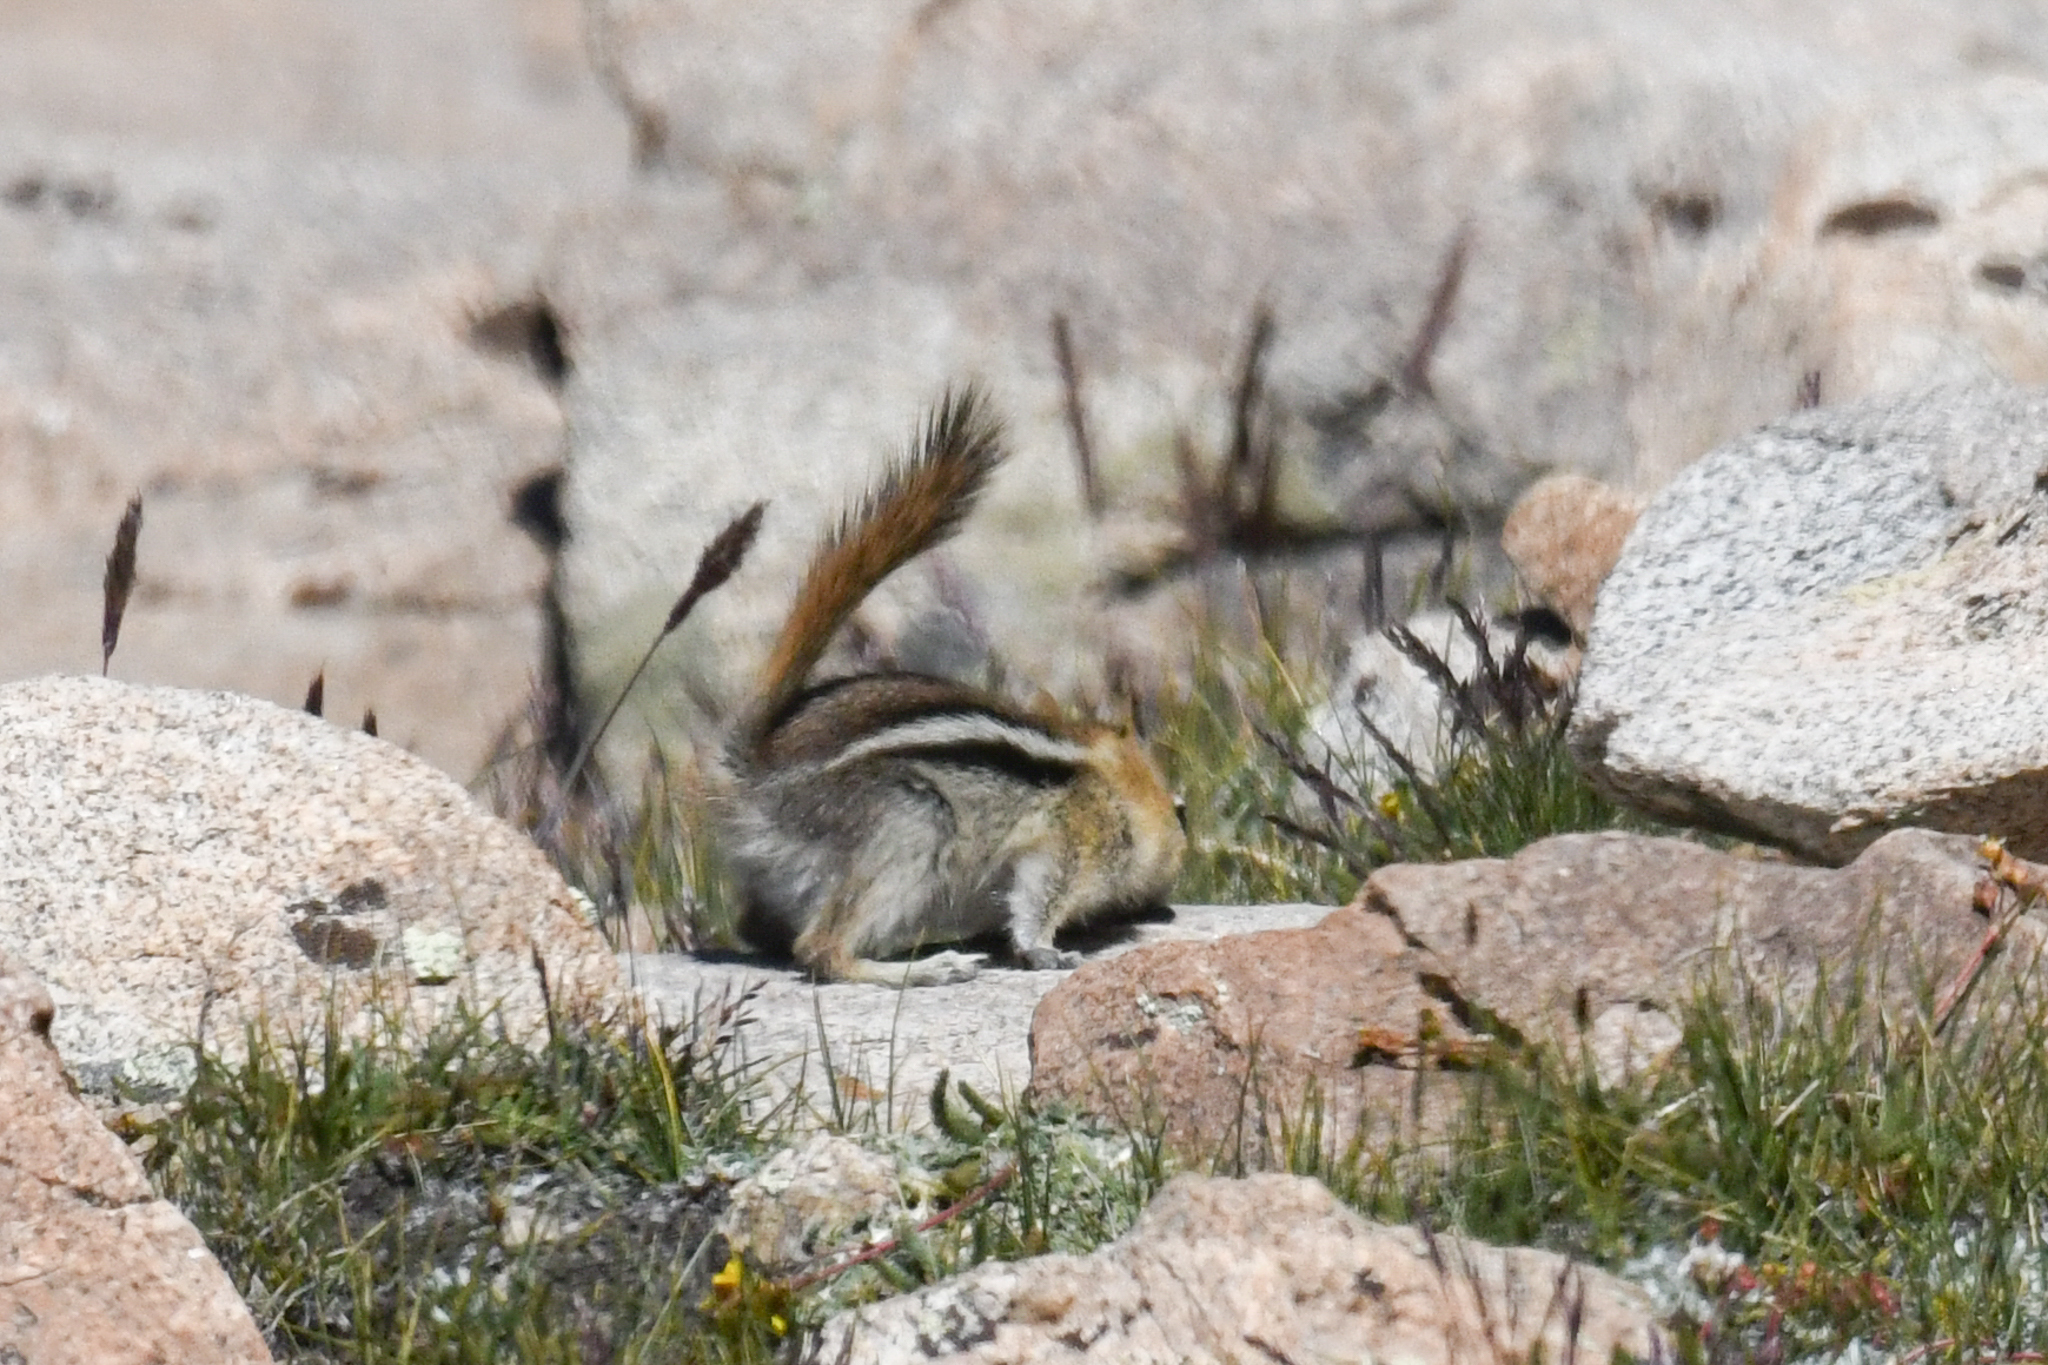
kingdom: Animalia
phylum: Chordata
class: Mammalia
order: Rodentia
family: Sciuridae
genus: Callospermophilus
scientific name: Callospermophilus lateralis
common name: Golden-mantled ground squirrel
